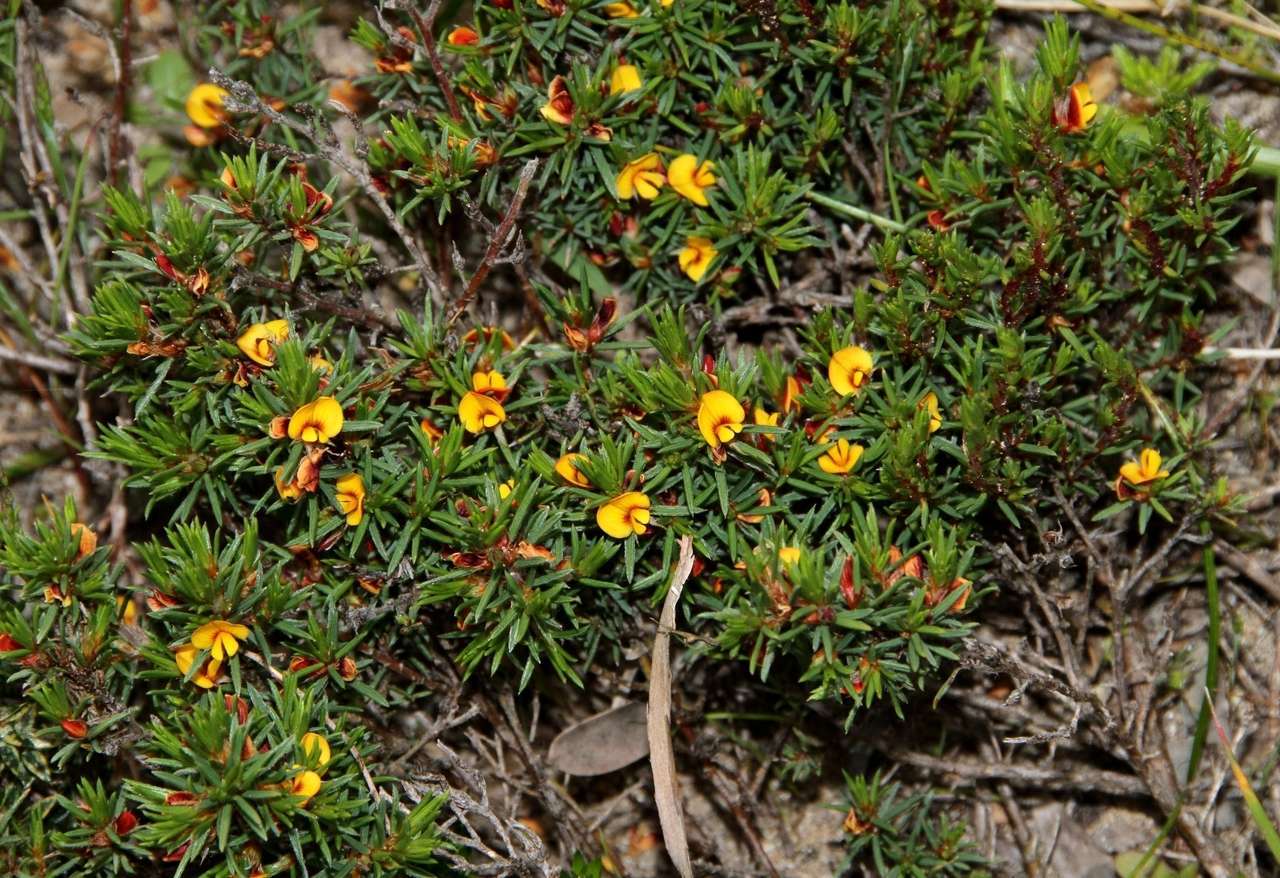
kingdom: Plantae
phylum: Tracheophyta
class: Magnoliopsida
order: Fabales
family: Fabaceae
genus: Pultenaea
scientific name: Pultenaea tenuifolia
